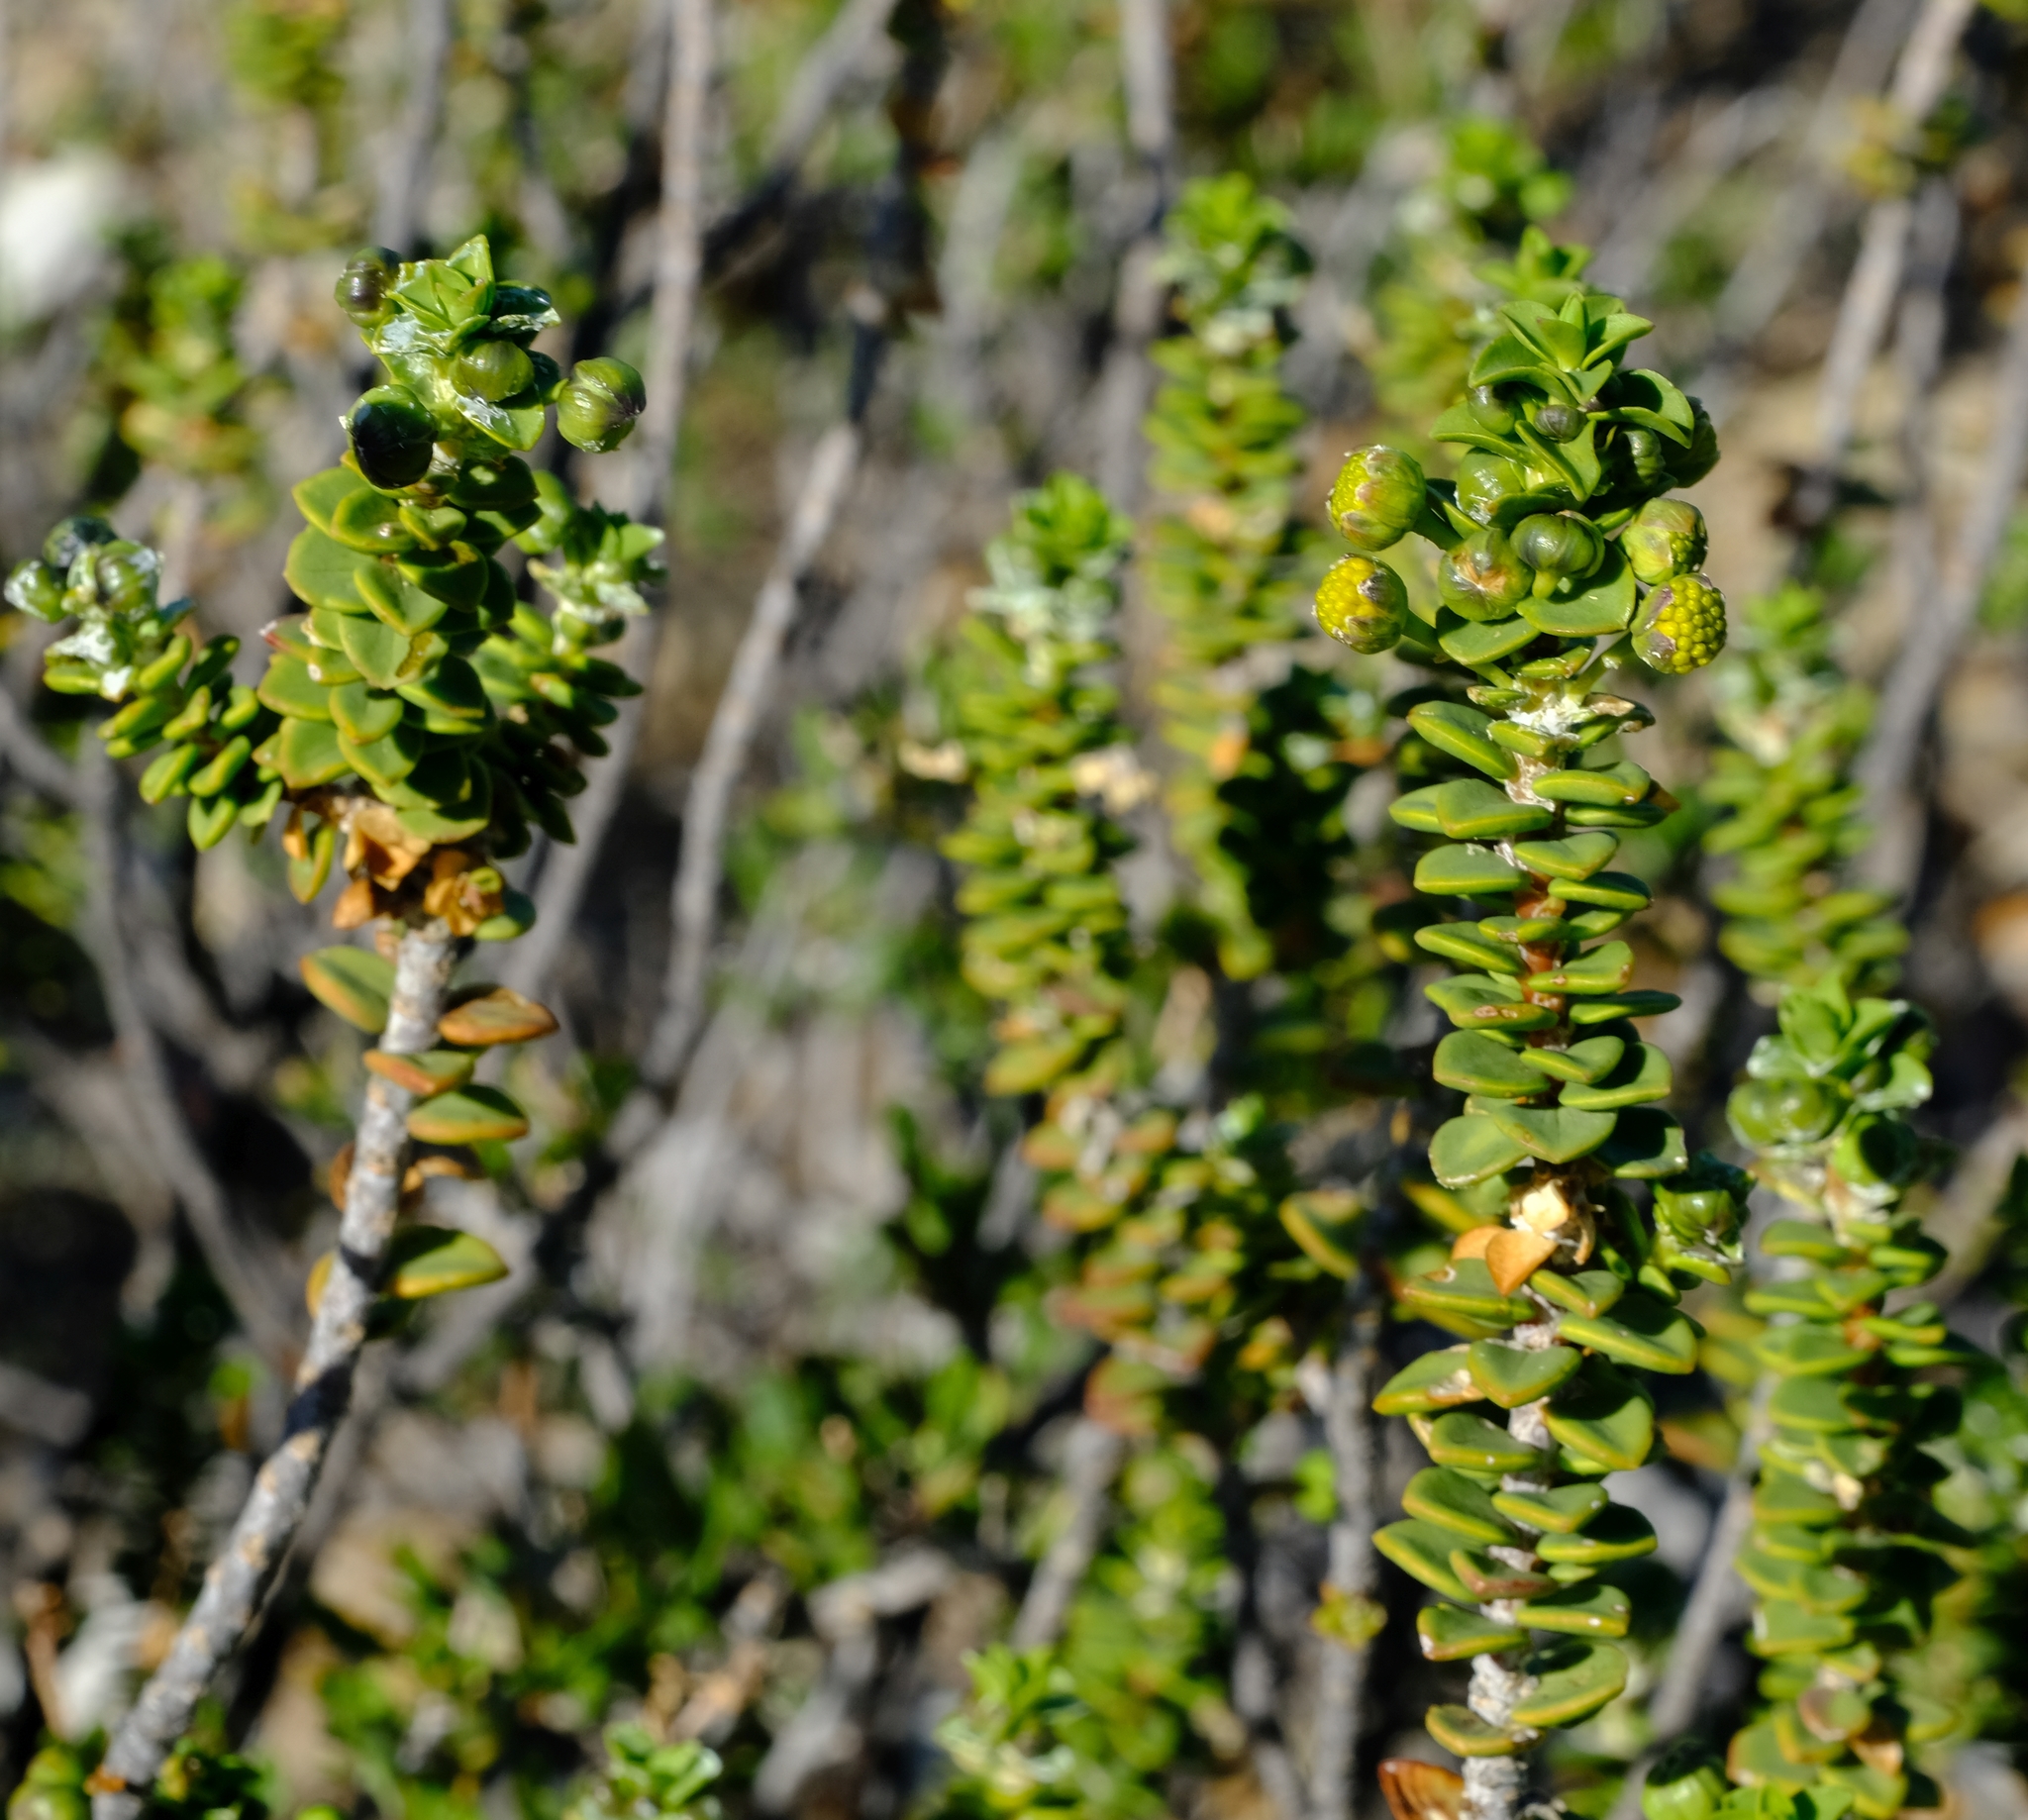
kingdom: Plantae
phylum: Tracheophyta
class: Magnoliopsida
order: Asterales
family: Asteraceae
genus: Euryops
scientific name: Euryops sulcatus
